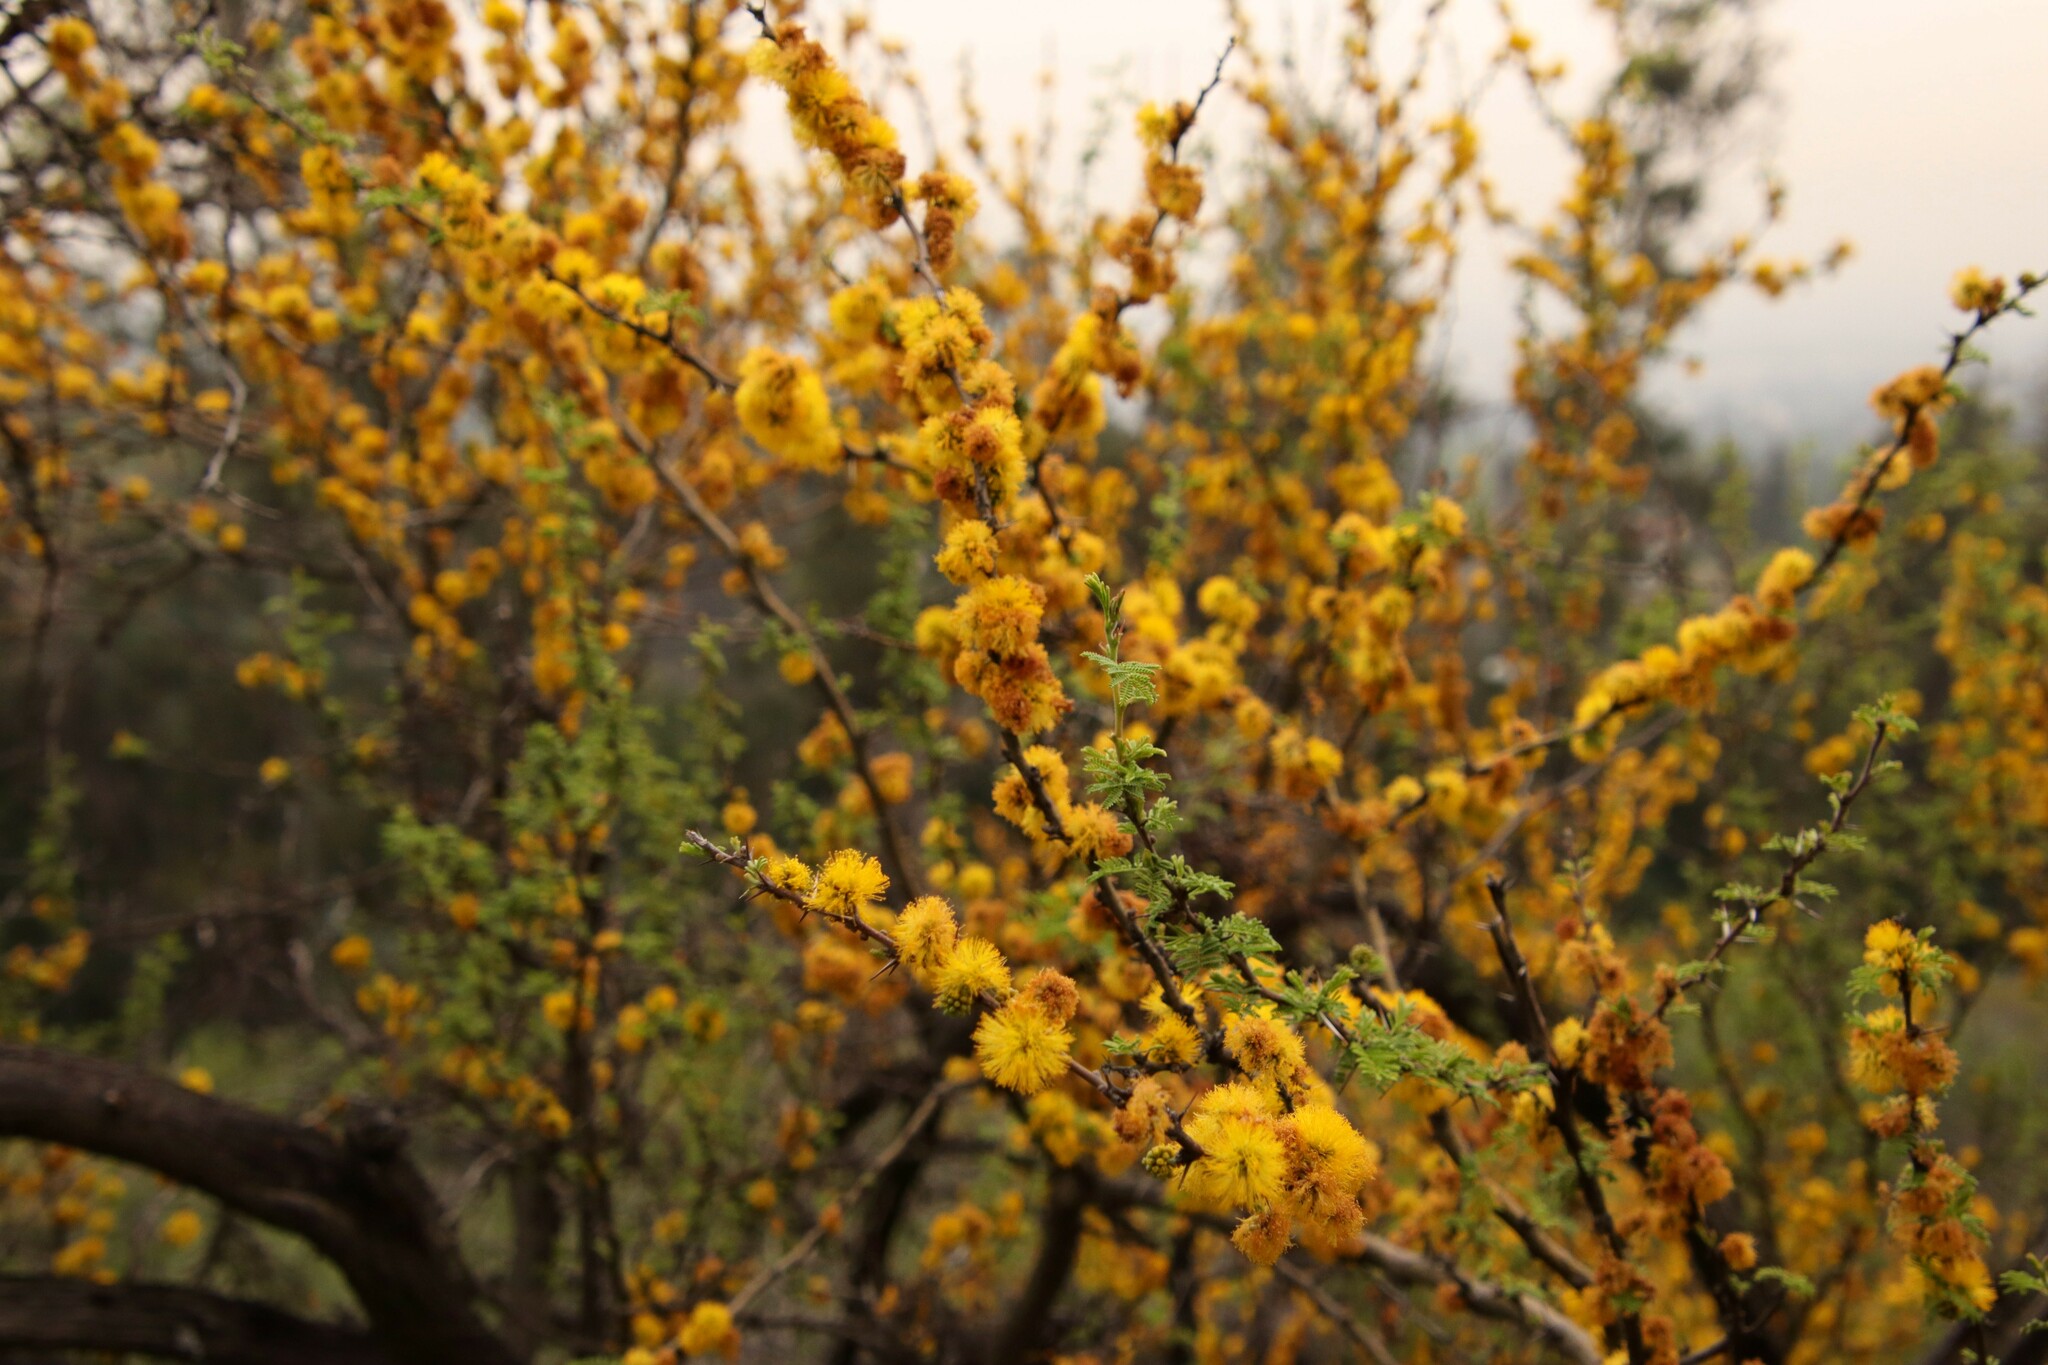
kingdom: Plantae
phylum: Tracheophyta
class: Magnoliopsida
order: Fabales
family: Fabaceae
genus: Vachellia
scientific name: Vachellia caven
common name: Roman cassie
